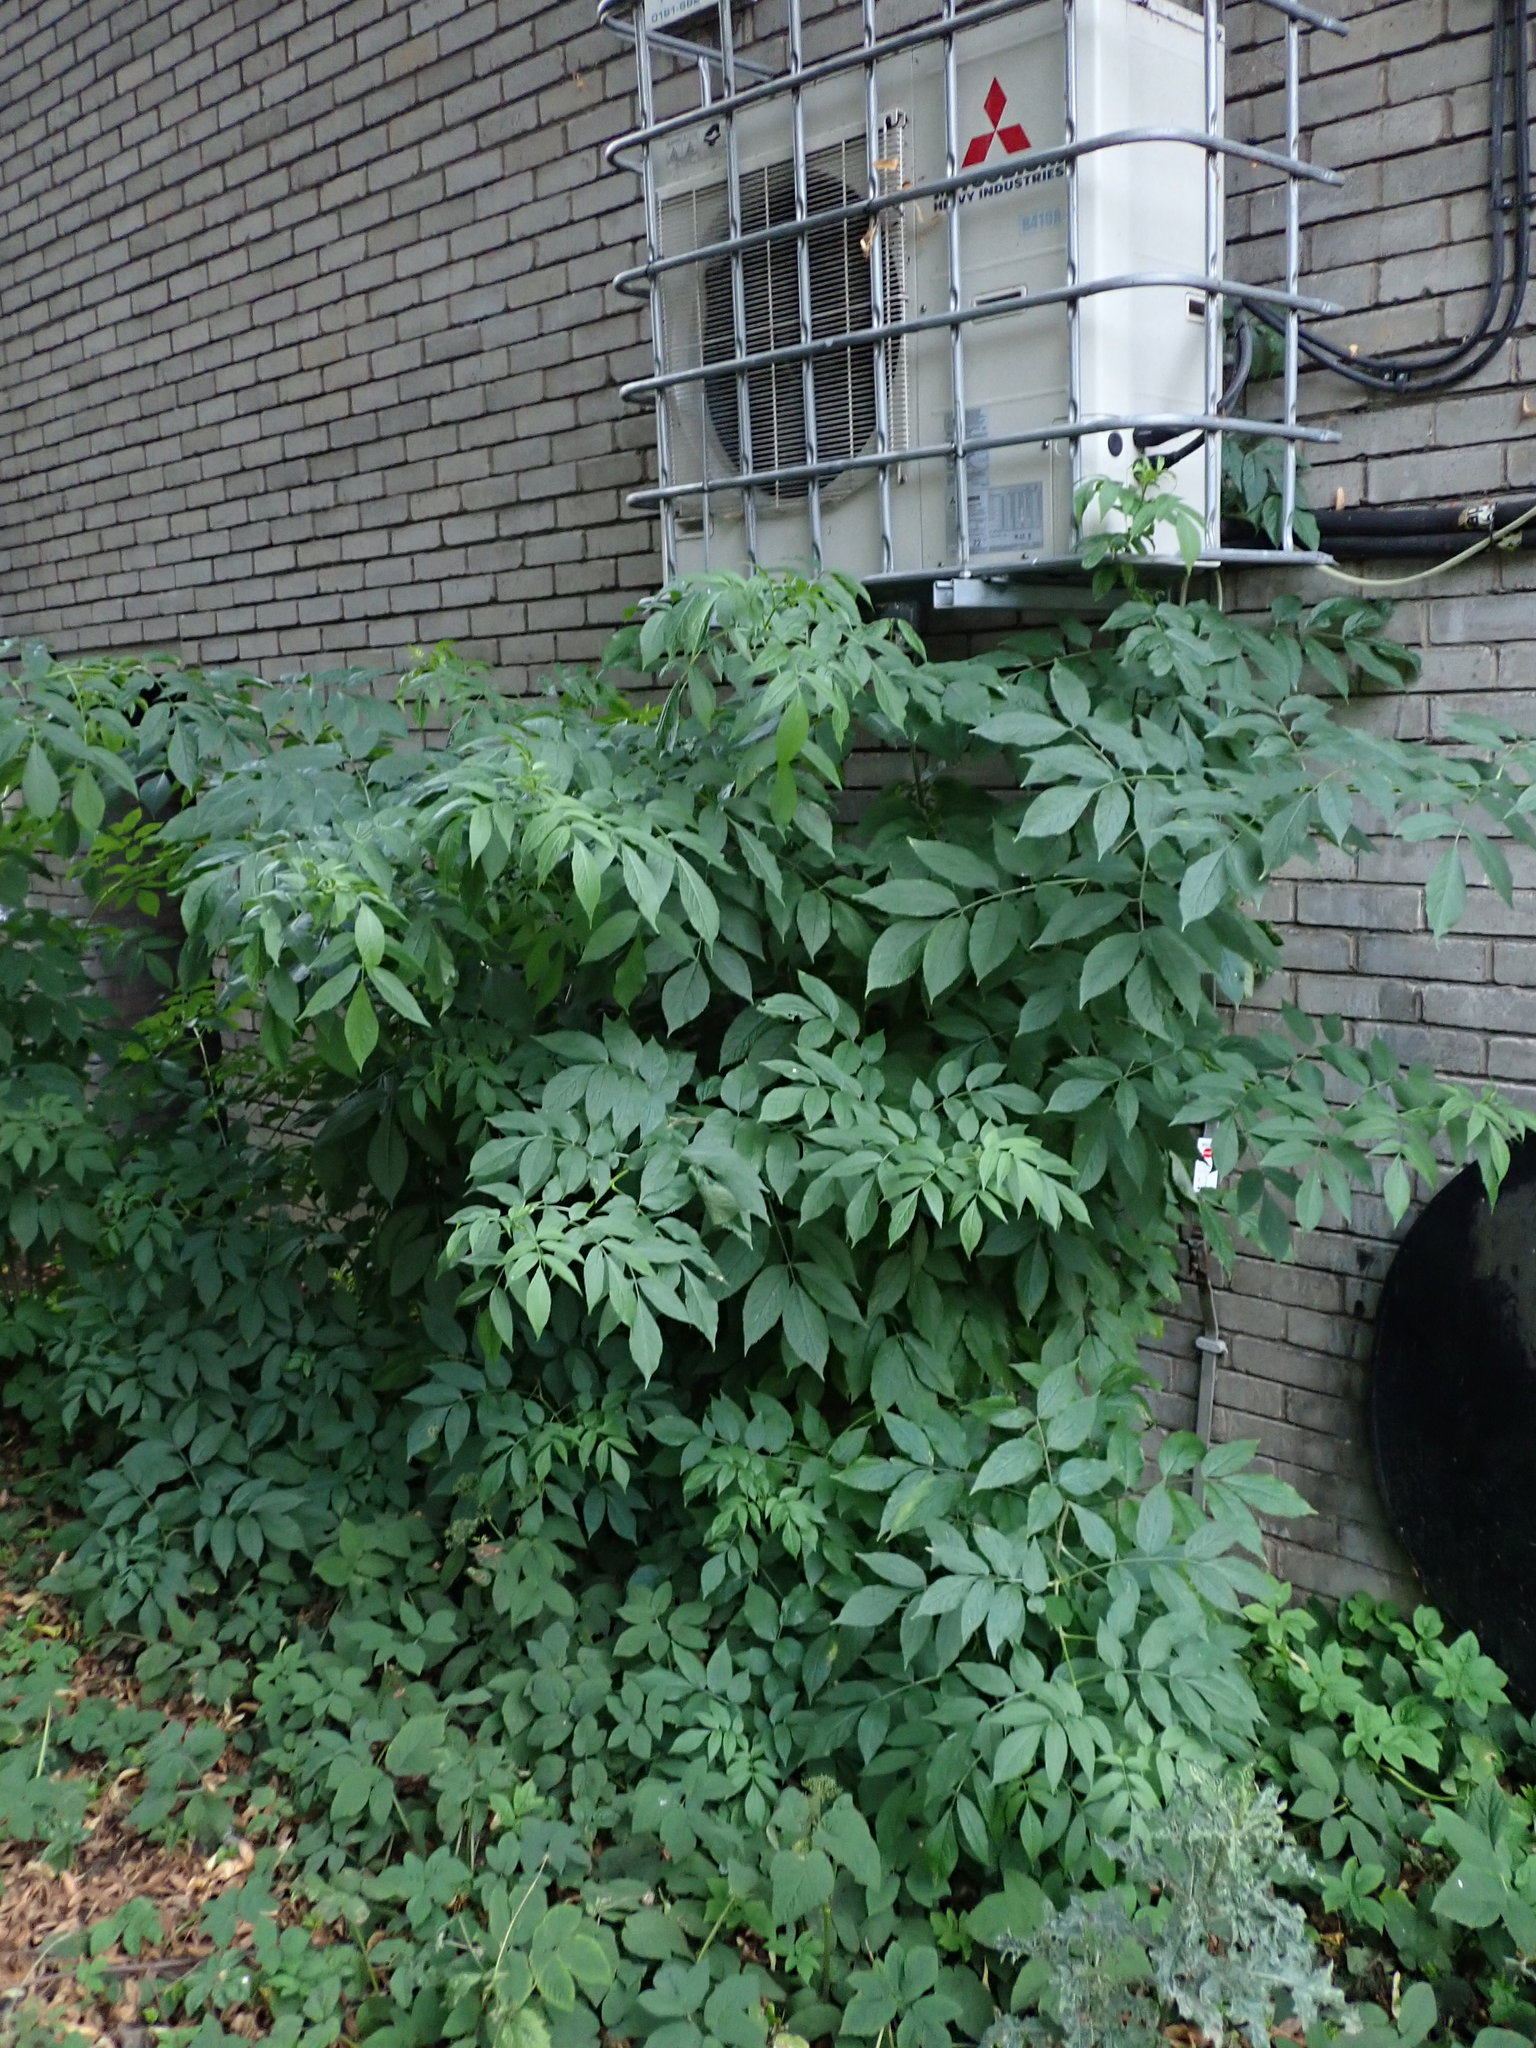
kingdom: Plantae
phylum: Tracheophyta
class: Magnoliopsida
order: Dipsacales
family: Viburnaceae
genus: Sambucus
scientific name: Sambucus nigra
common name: Elder
